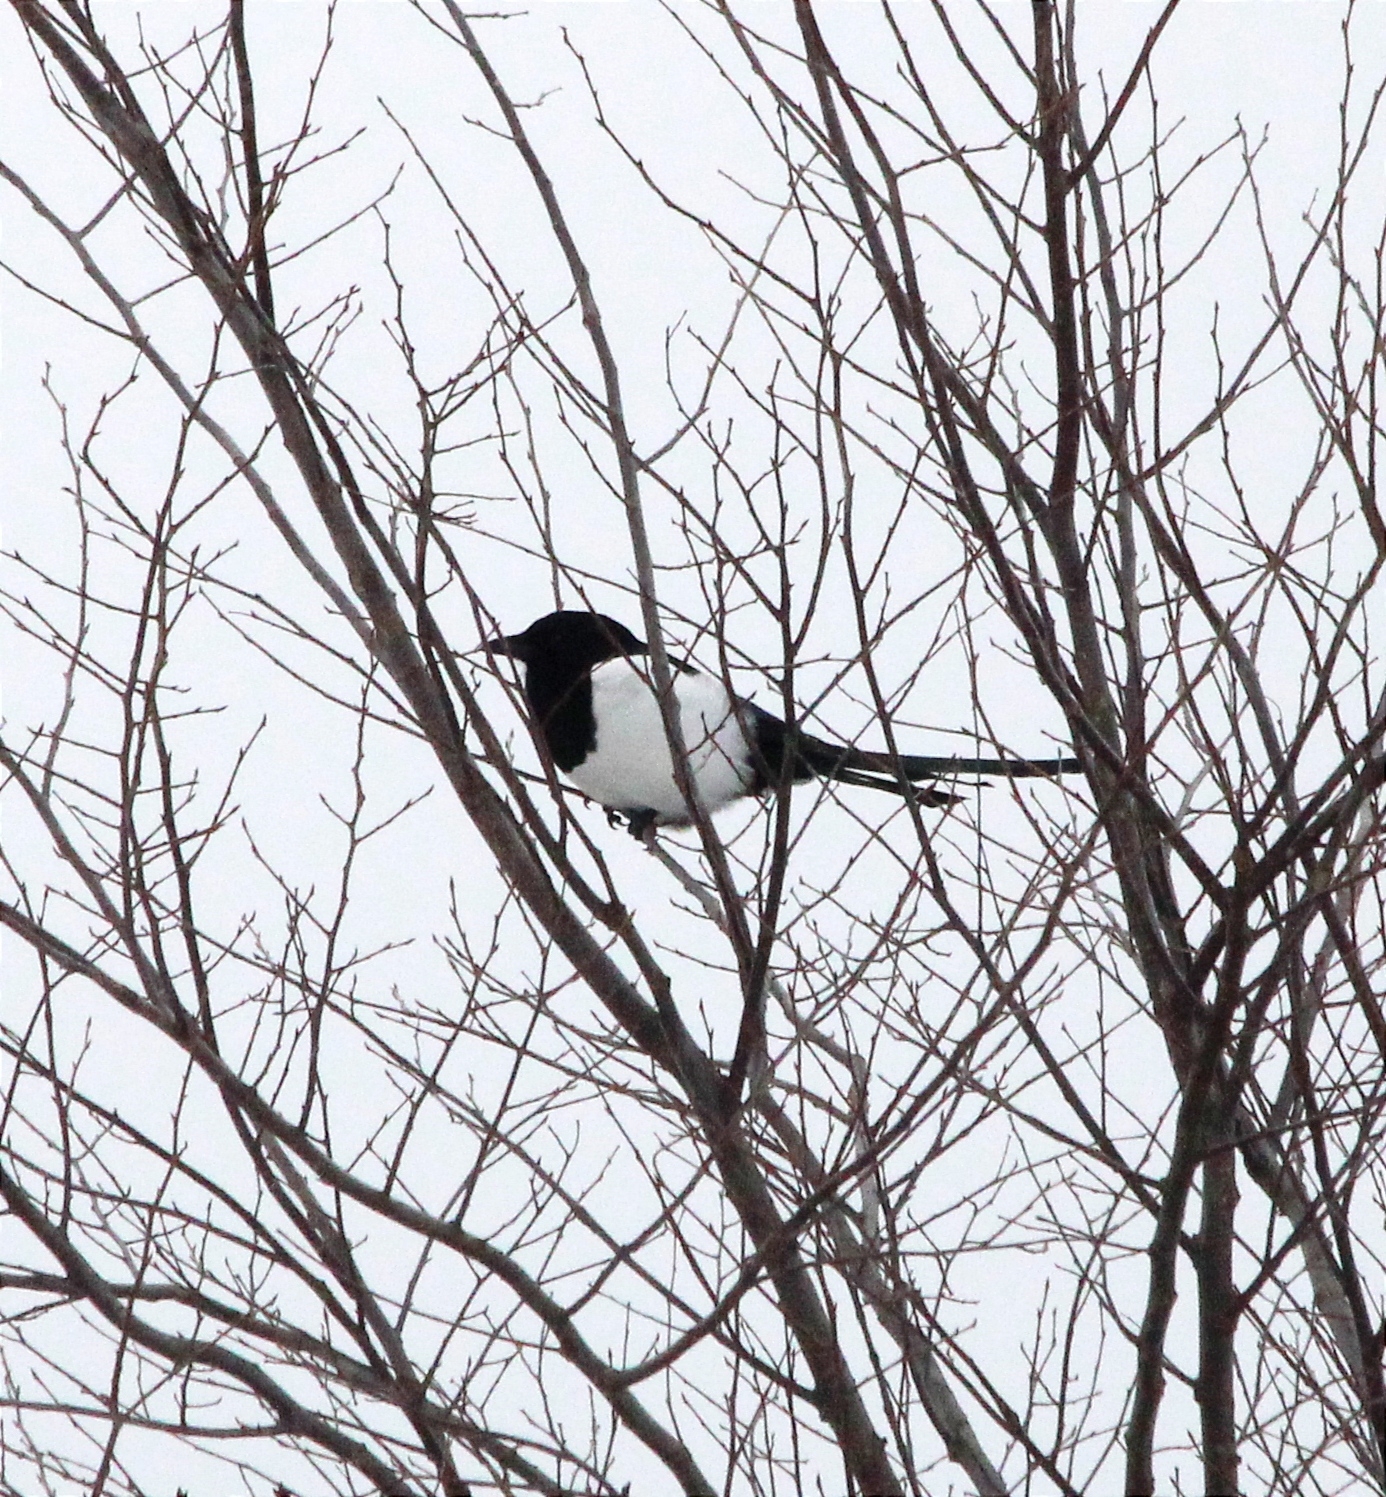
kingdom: Animalia
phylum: Chordata
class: Aves
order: Passeriformes
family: Corvidae
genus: Pica
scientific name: Pica pica
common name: Eurasian magpie
